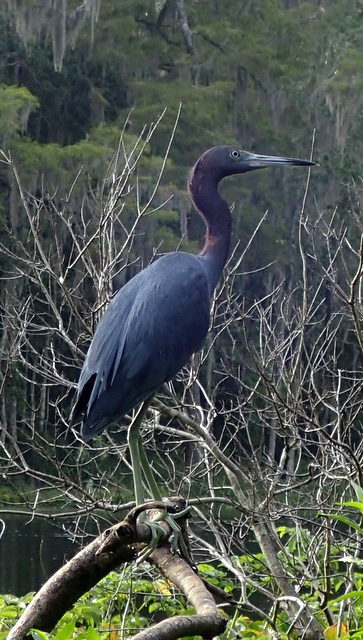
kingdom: Animalia
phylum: Chordata
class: Aves
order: Pelecaniformes
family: Ardeidae
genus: Egretta
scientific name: Egretta caerulea
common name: Little blue heron
